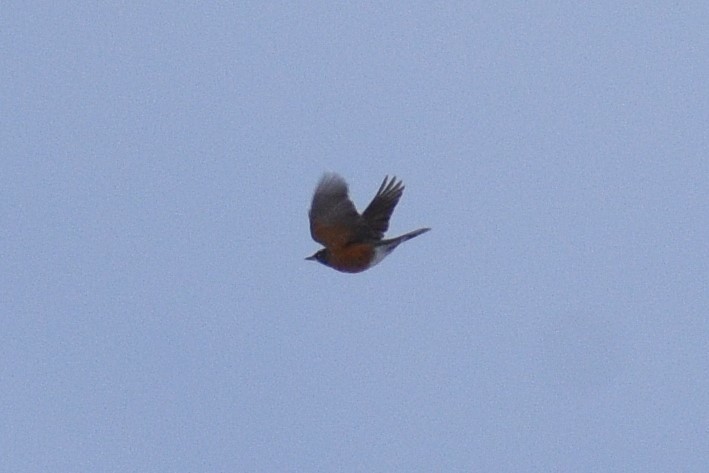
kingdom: Animalia
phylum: Chordata
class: Aves
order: Passeriformes
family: Turdidae
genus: Turdus
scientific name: Turdus migratorius
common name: American robin
